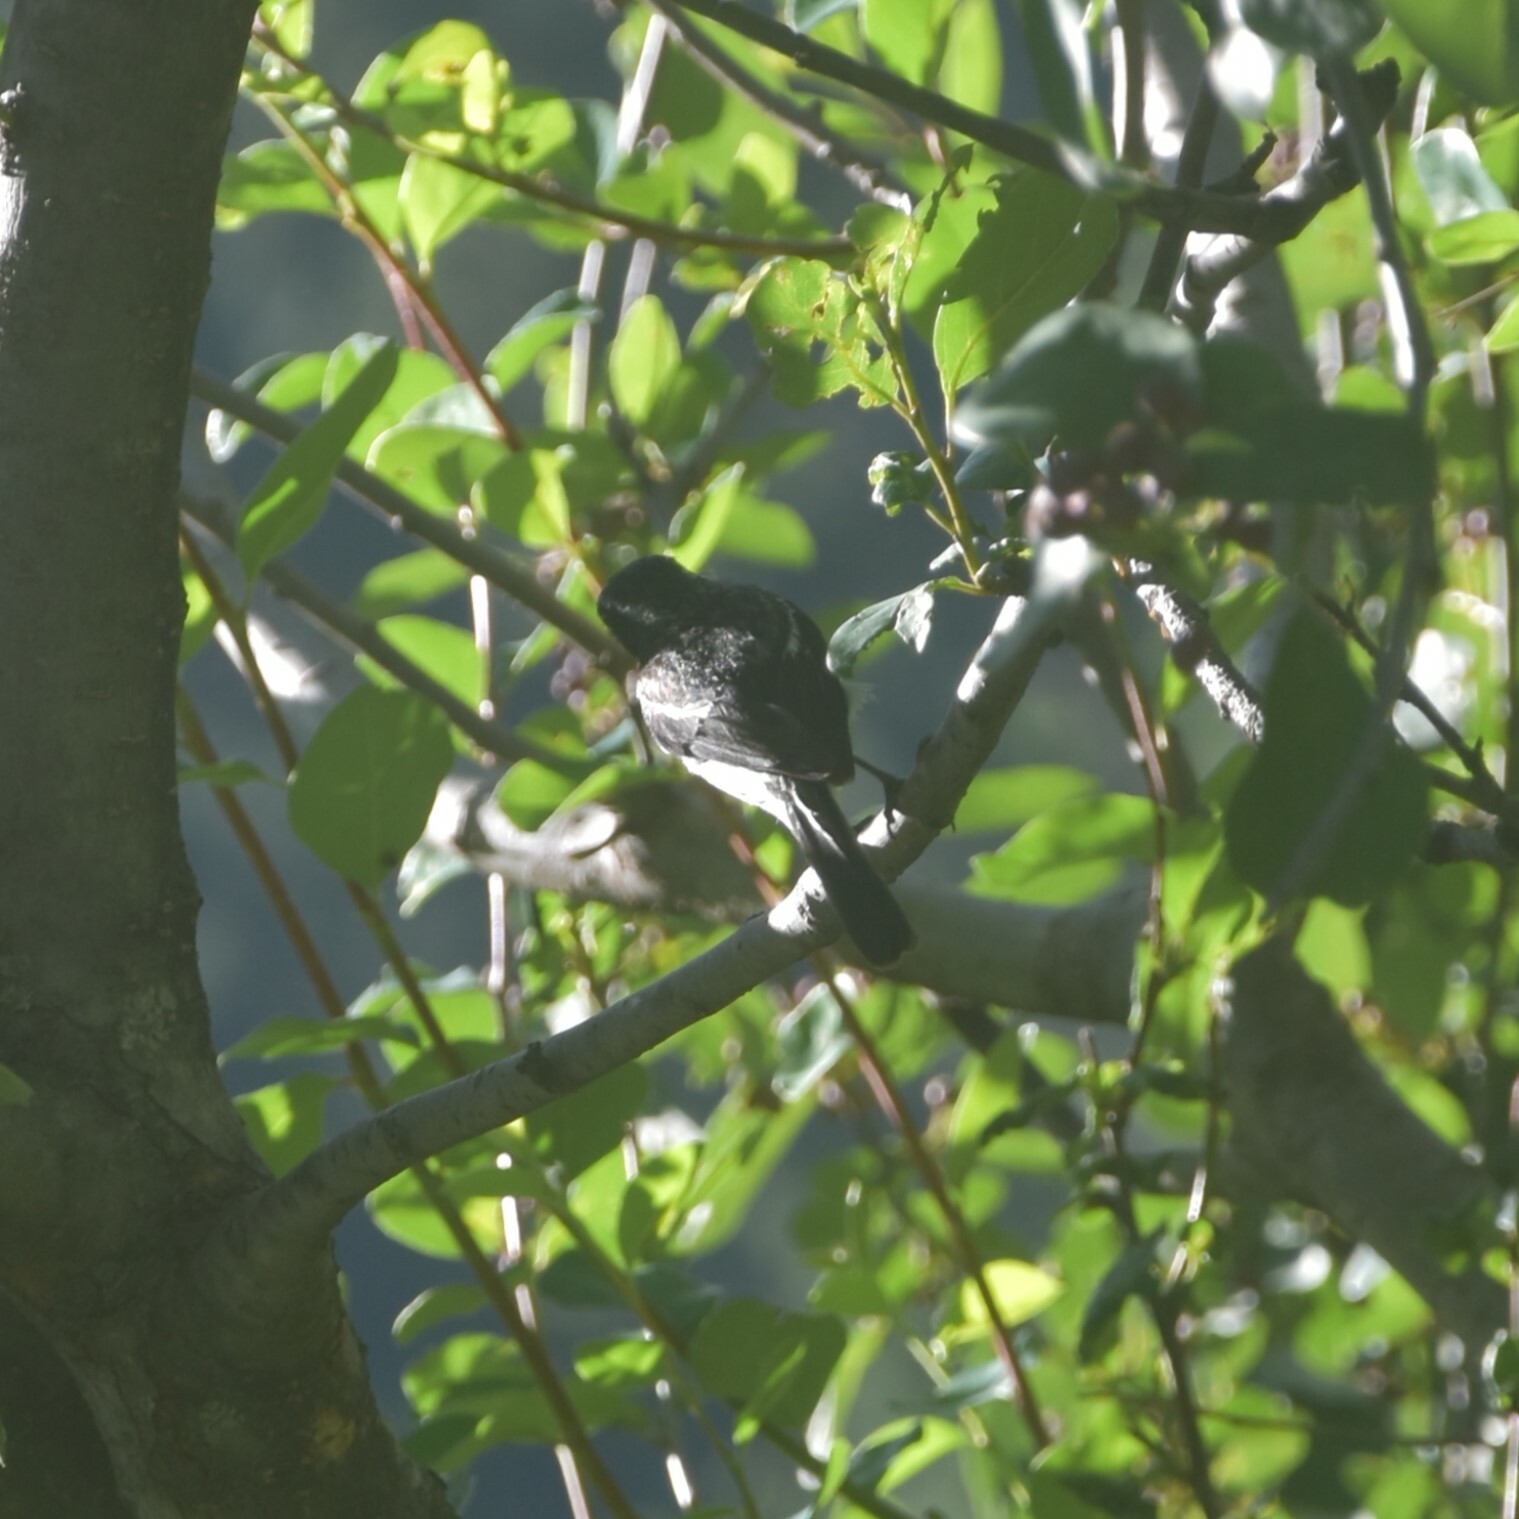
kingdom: Animalia
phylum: Chordata
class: Aves
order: Passeriformes
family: Muscicapidae
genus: Saxicola
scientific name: Saxicola ferreus
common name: Grey bush chat
